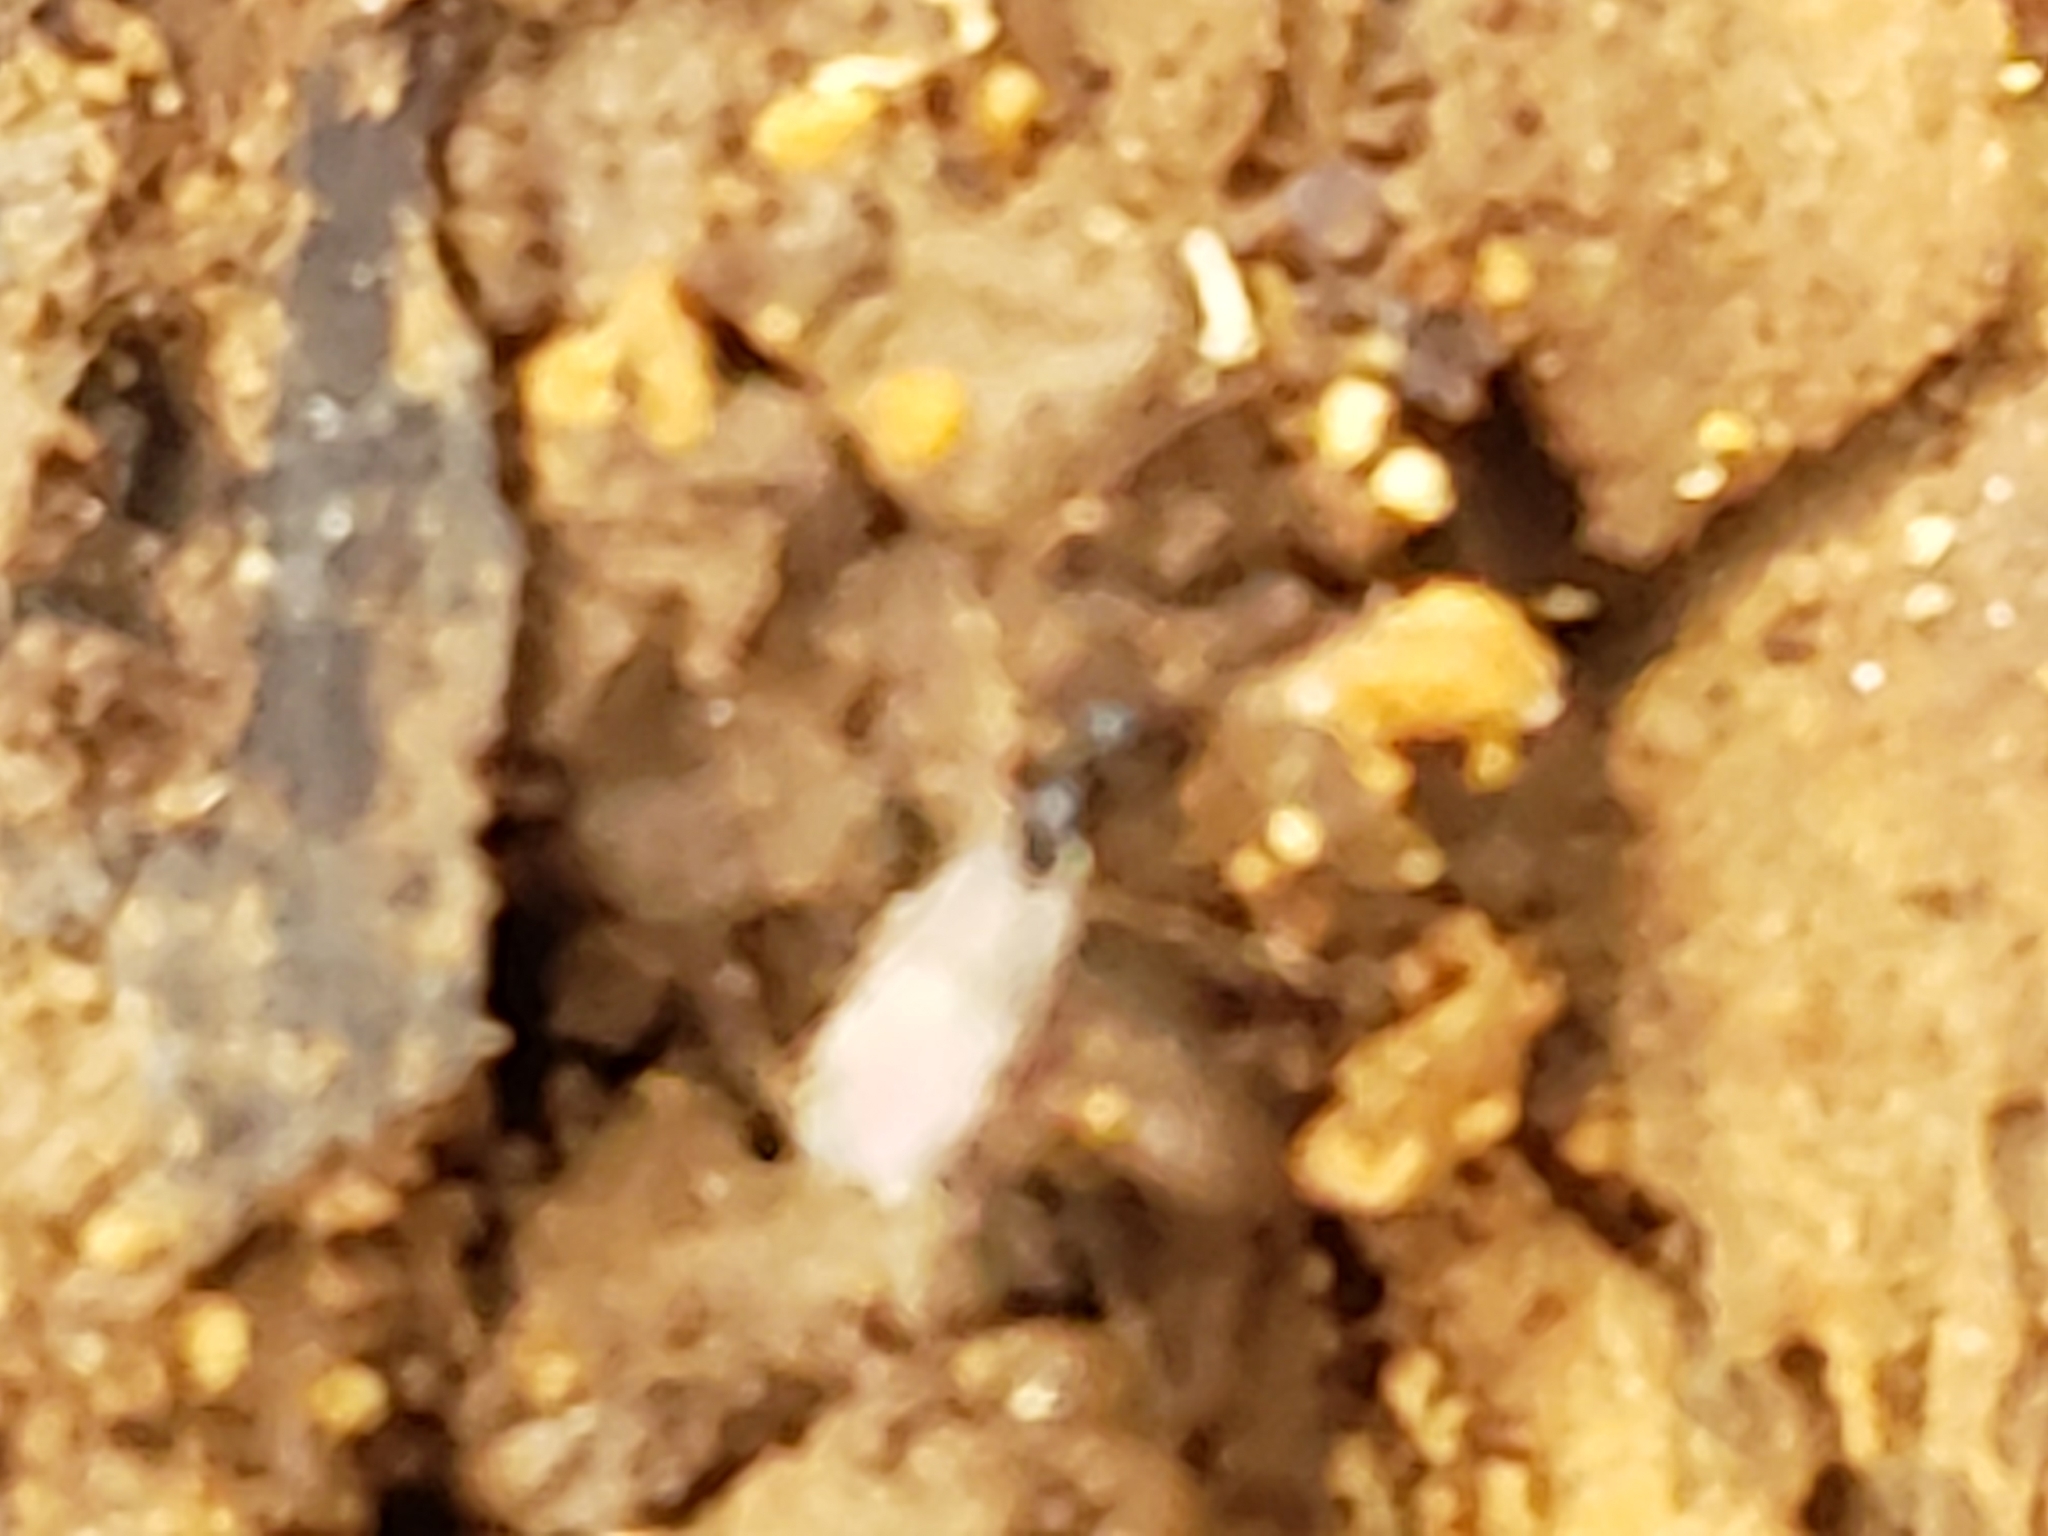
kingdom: Animalia
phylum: Arthropoda
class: Insecta
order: Hymenoptera
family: Formicidae
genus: Prenolepis
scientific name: Prenolepis imparis
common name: Small honey ant
